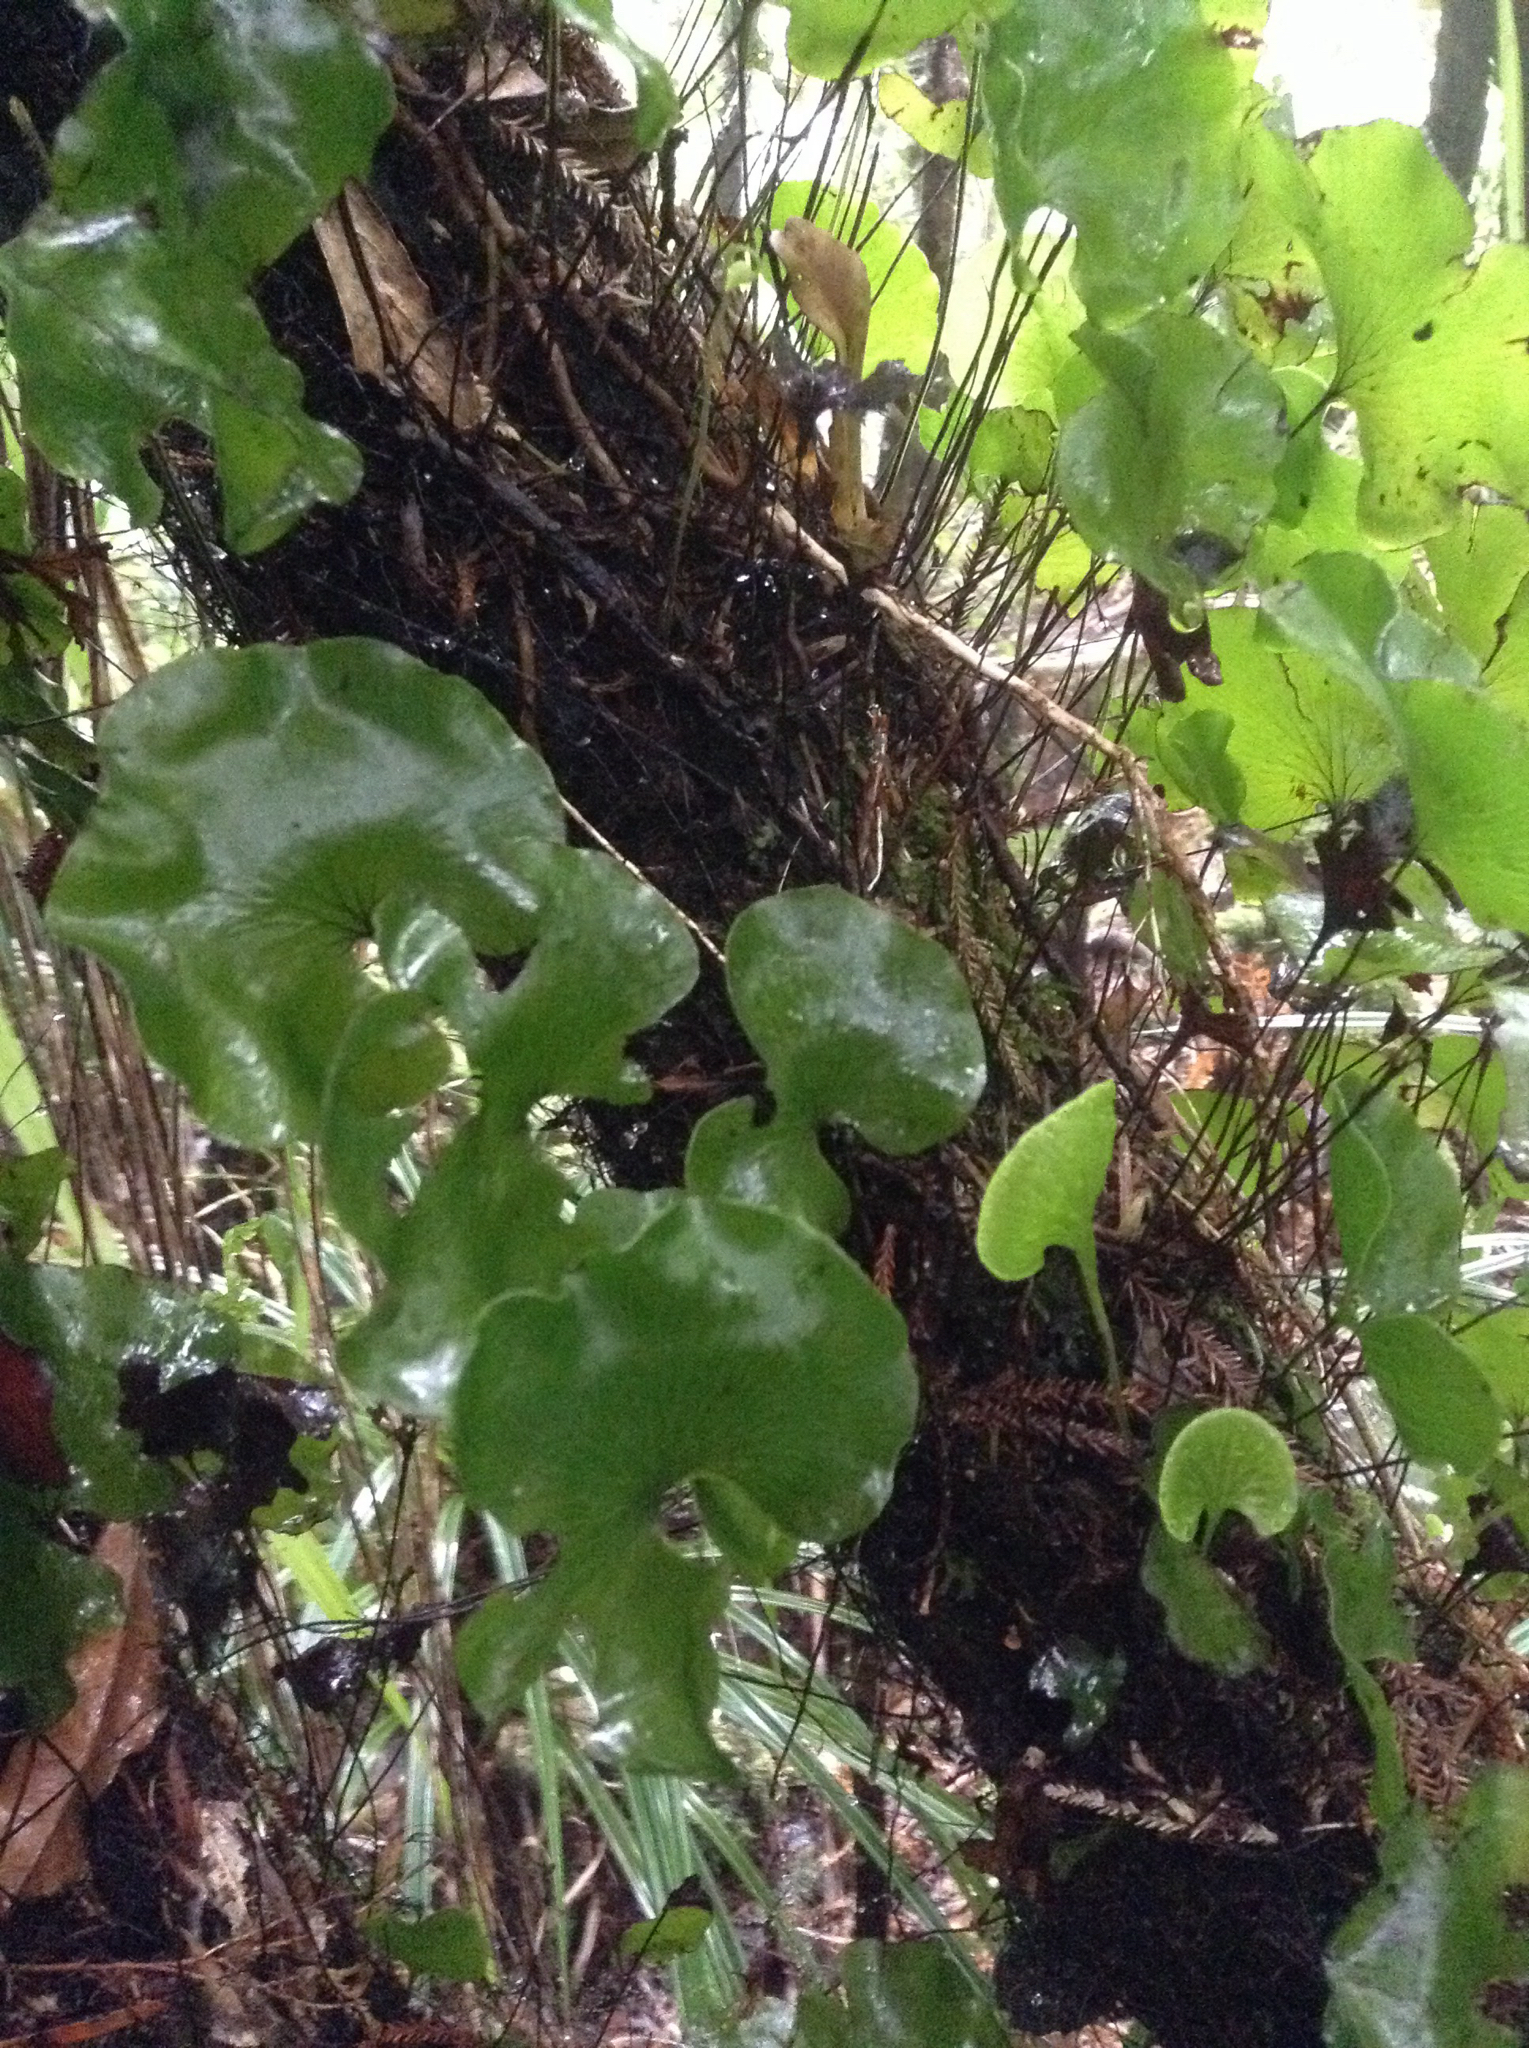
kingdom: Plantae
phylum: Tracheophyta
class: Polypodiopsida
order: Hymenophyllales
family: Hymenophyllaceae
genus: Hymenophyllum
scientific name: Hymenophyllum nephrophyllum
